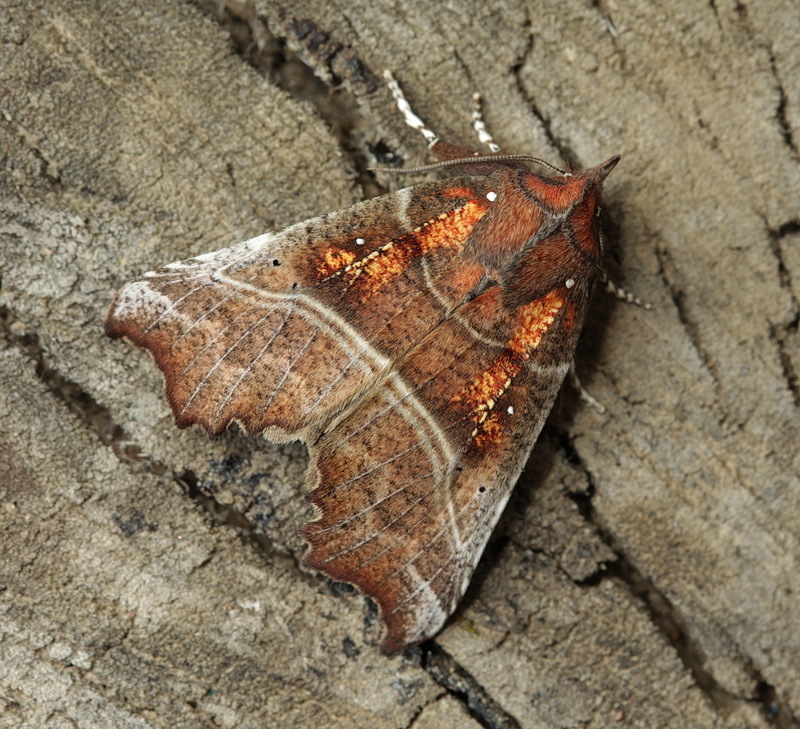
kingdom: Animalia
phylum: Arthropoda
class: Insecta
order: Lepidoptera
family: Erebidae
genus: Scoliopteryx
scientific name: Scoliopteryx libatrix
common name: Herald
